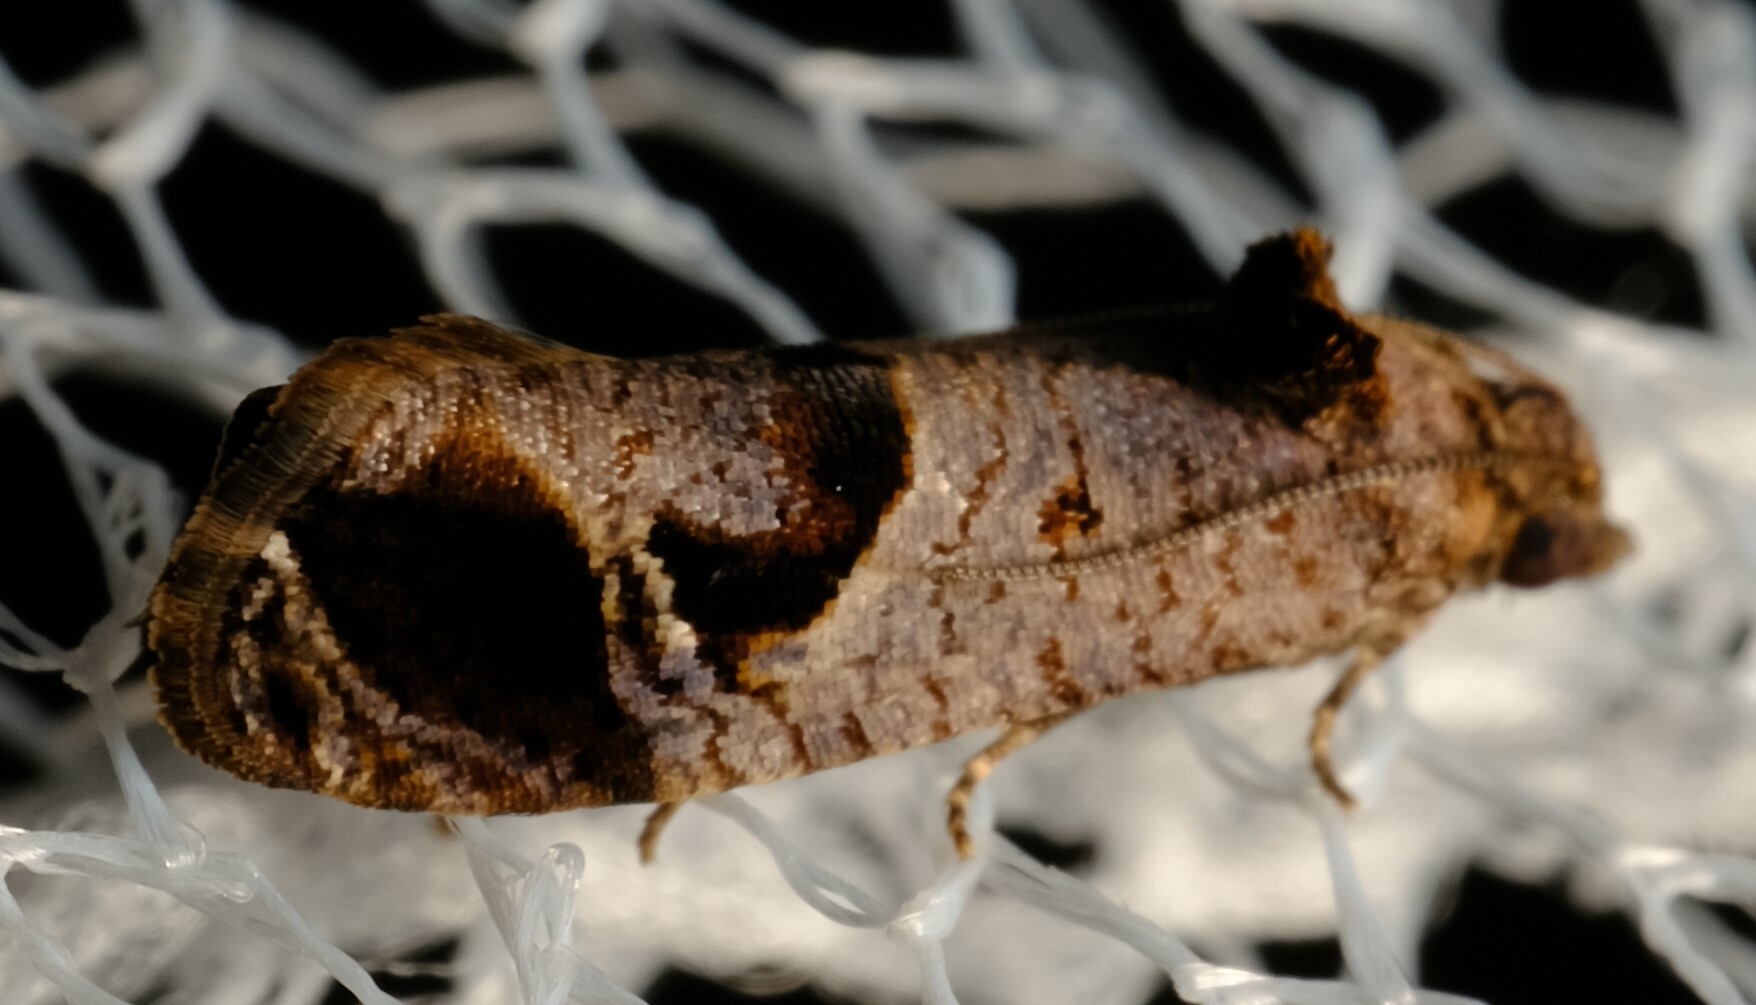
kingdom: Animalia
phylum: Arthropoda
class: Insecta
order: Lepidoptera
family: Tortricidae
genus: Lobesia
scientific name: Lobesia extrusana
